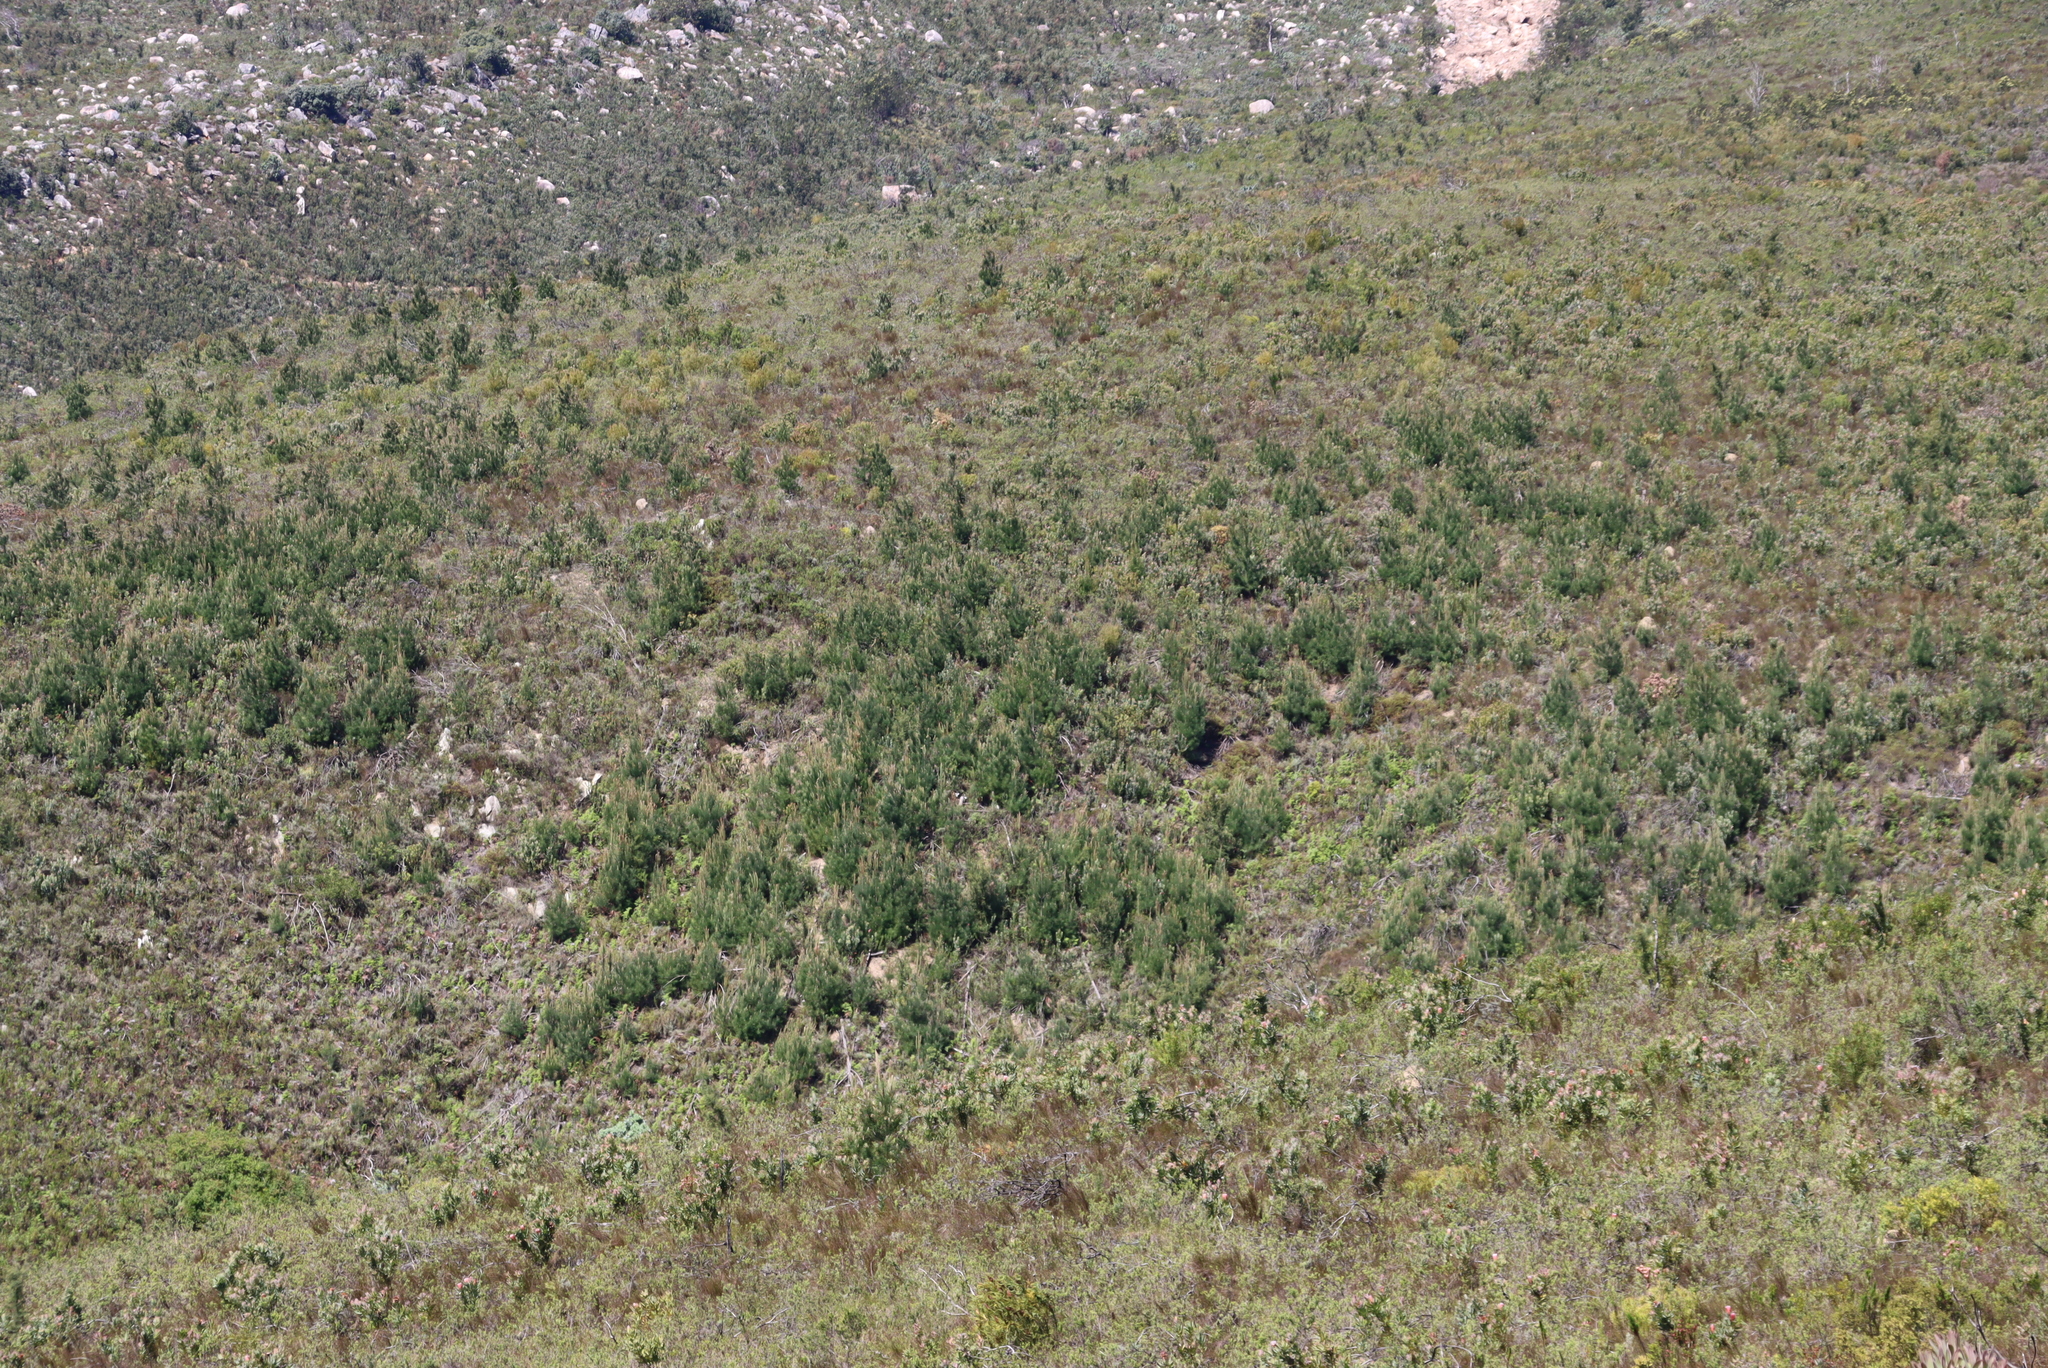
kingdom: Plantae
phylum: Tracheophyta
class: Pinopsida
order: Pinales
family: Pinaceae
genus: Pinus
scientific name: Pinus pinaster
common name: Maritime pine
